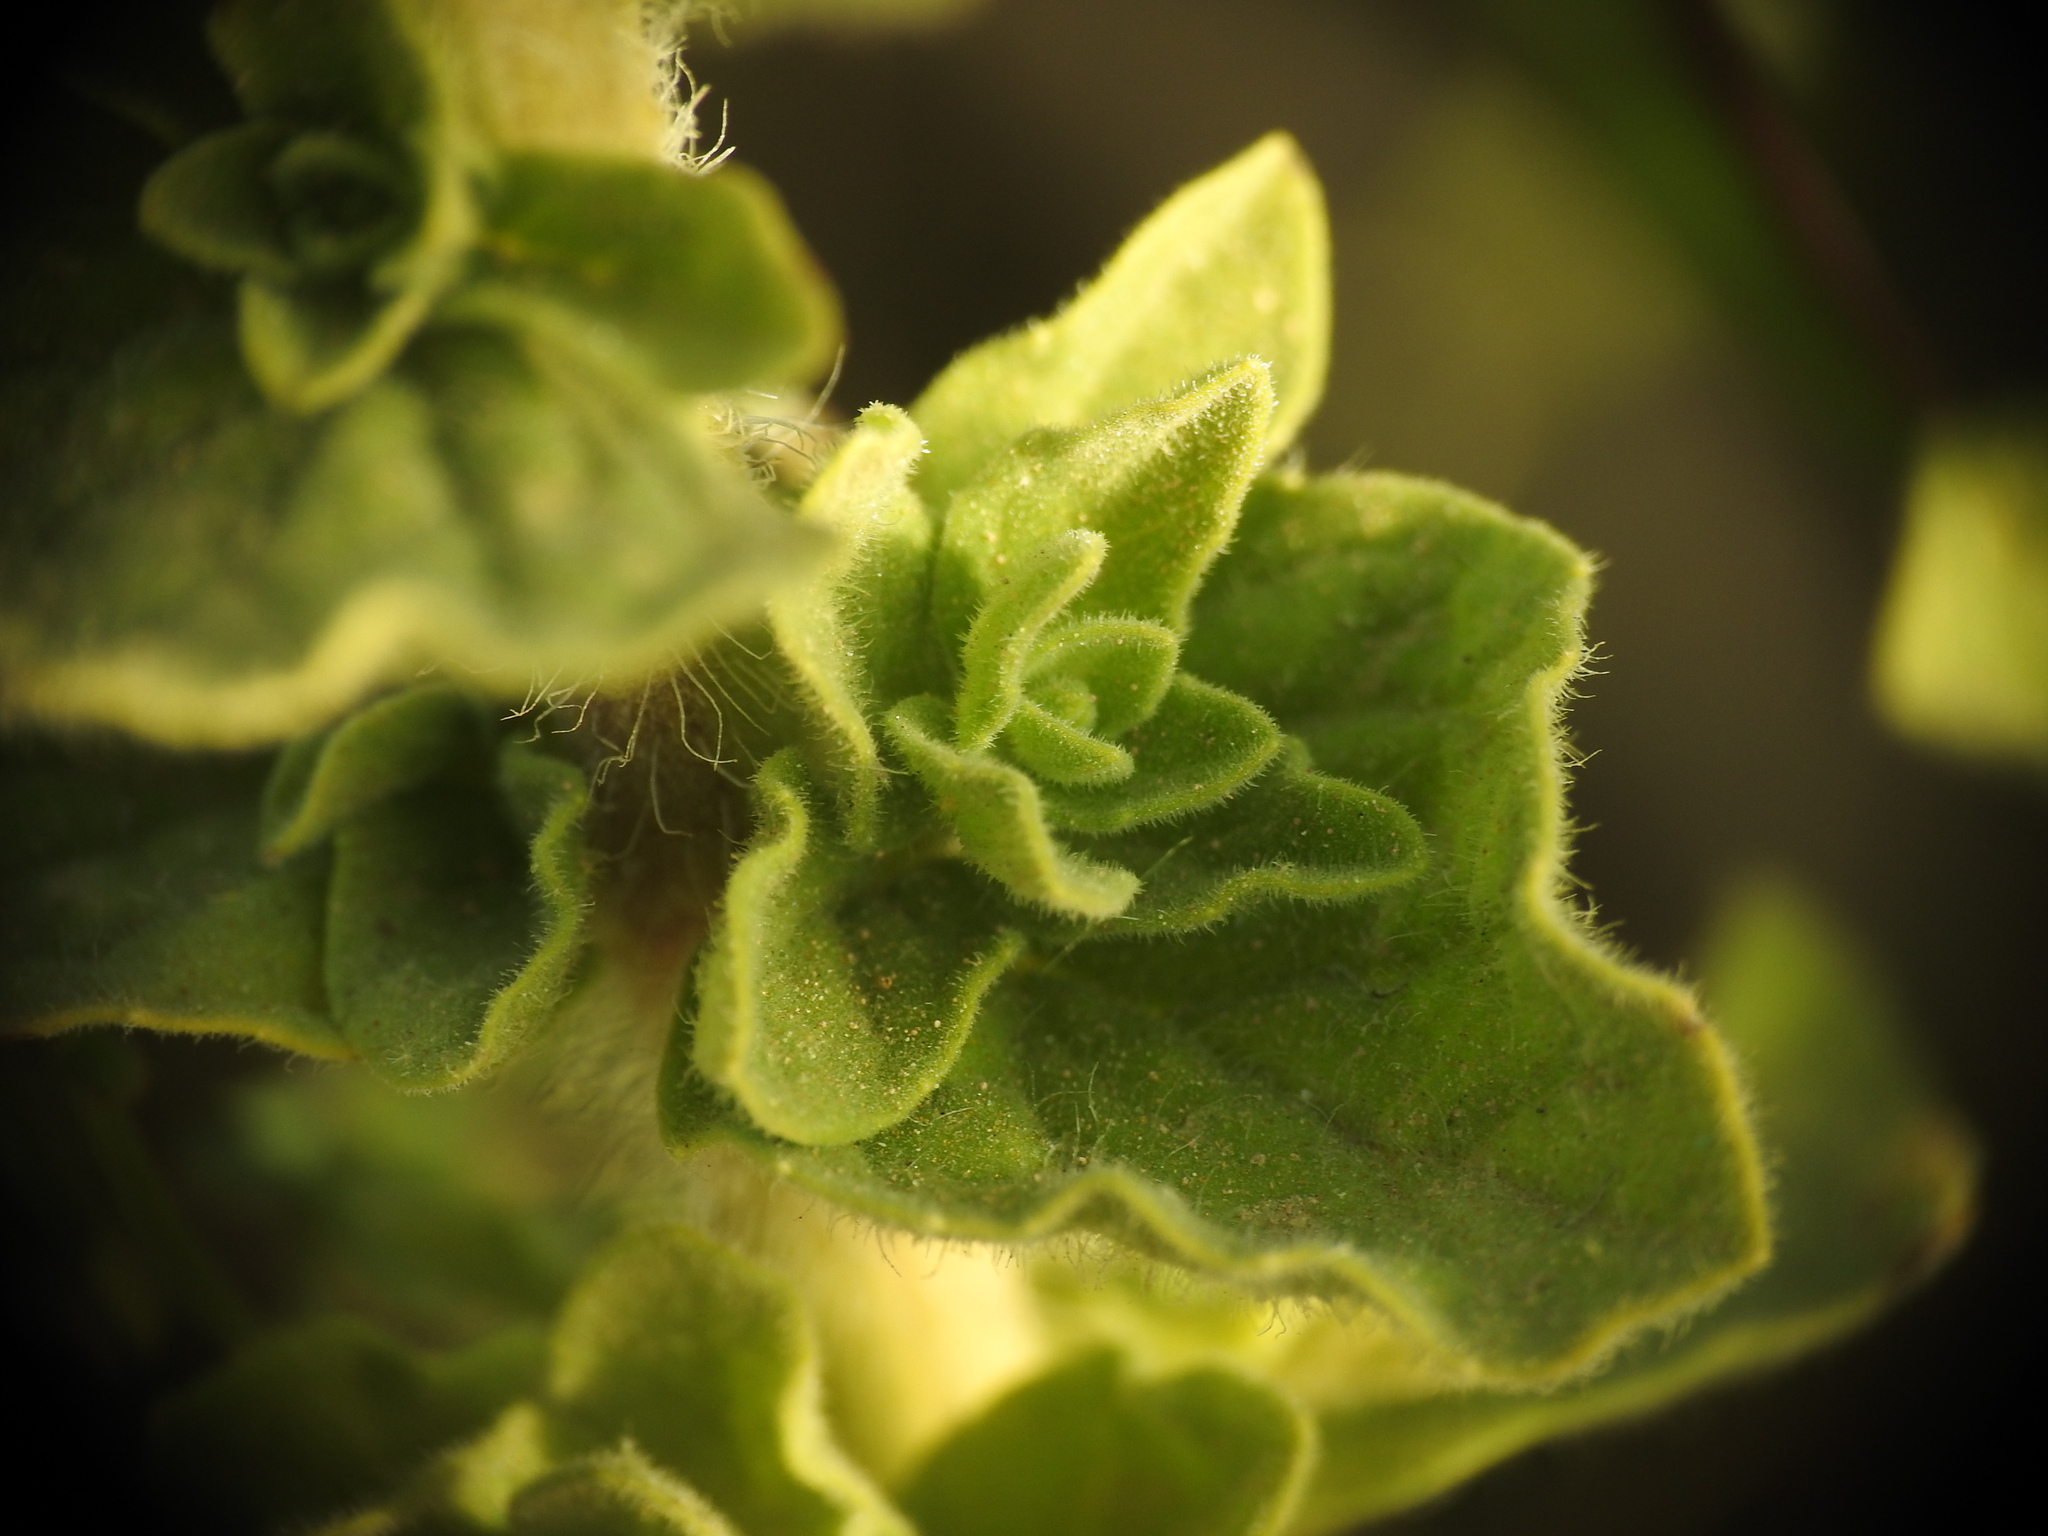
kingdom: Plantae
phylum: Tracheophyta
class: Magnoliopsida
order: Lamiales
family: Lamiaceae
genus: Origanum
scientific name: Origanum onites
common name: Turkish oregano
